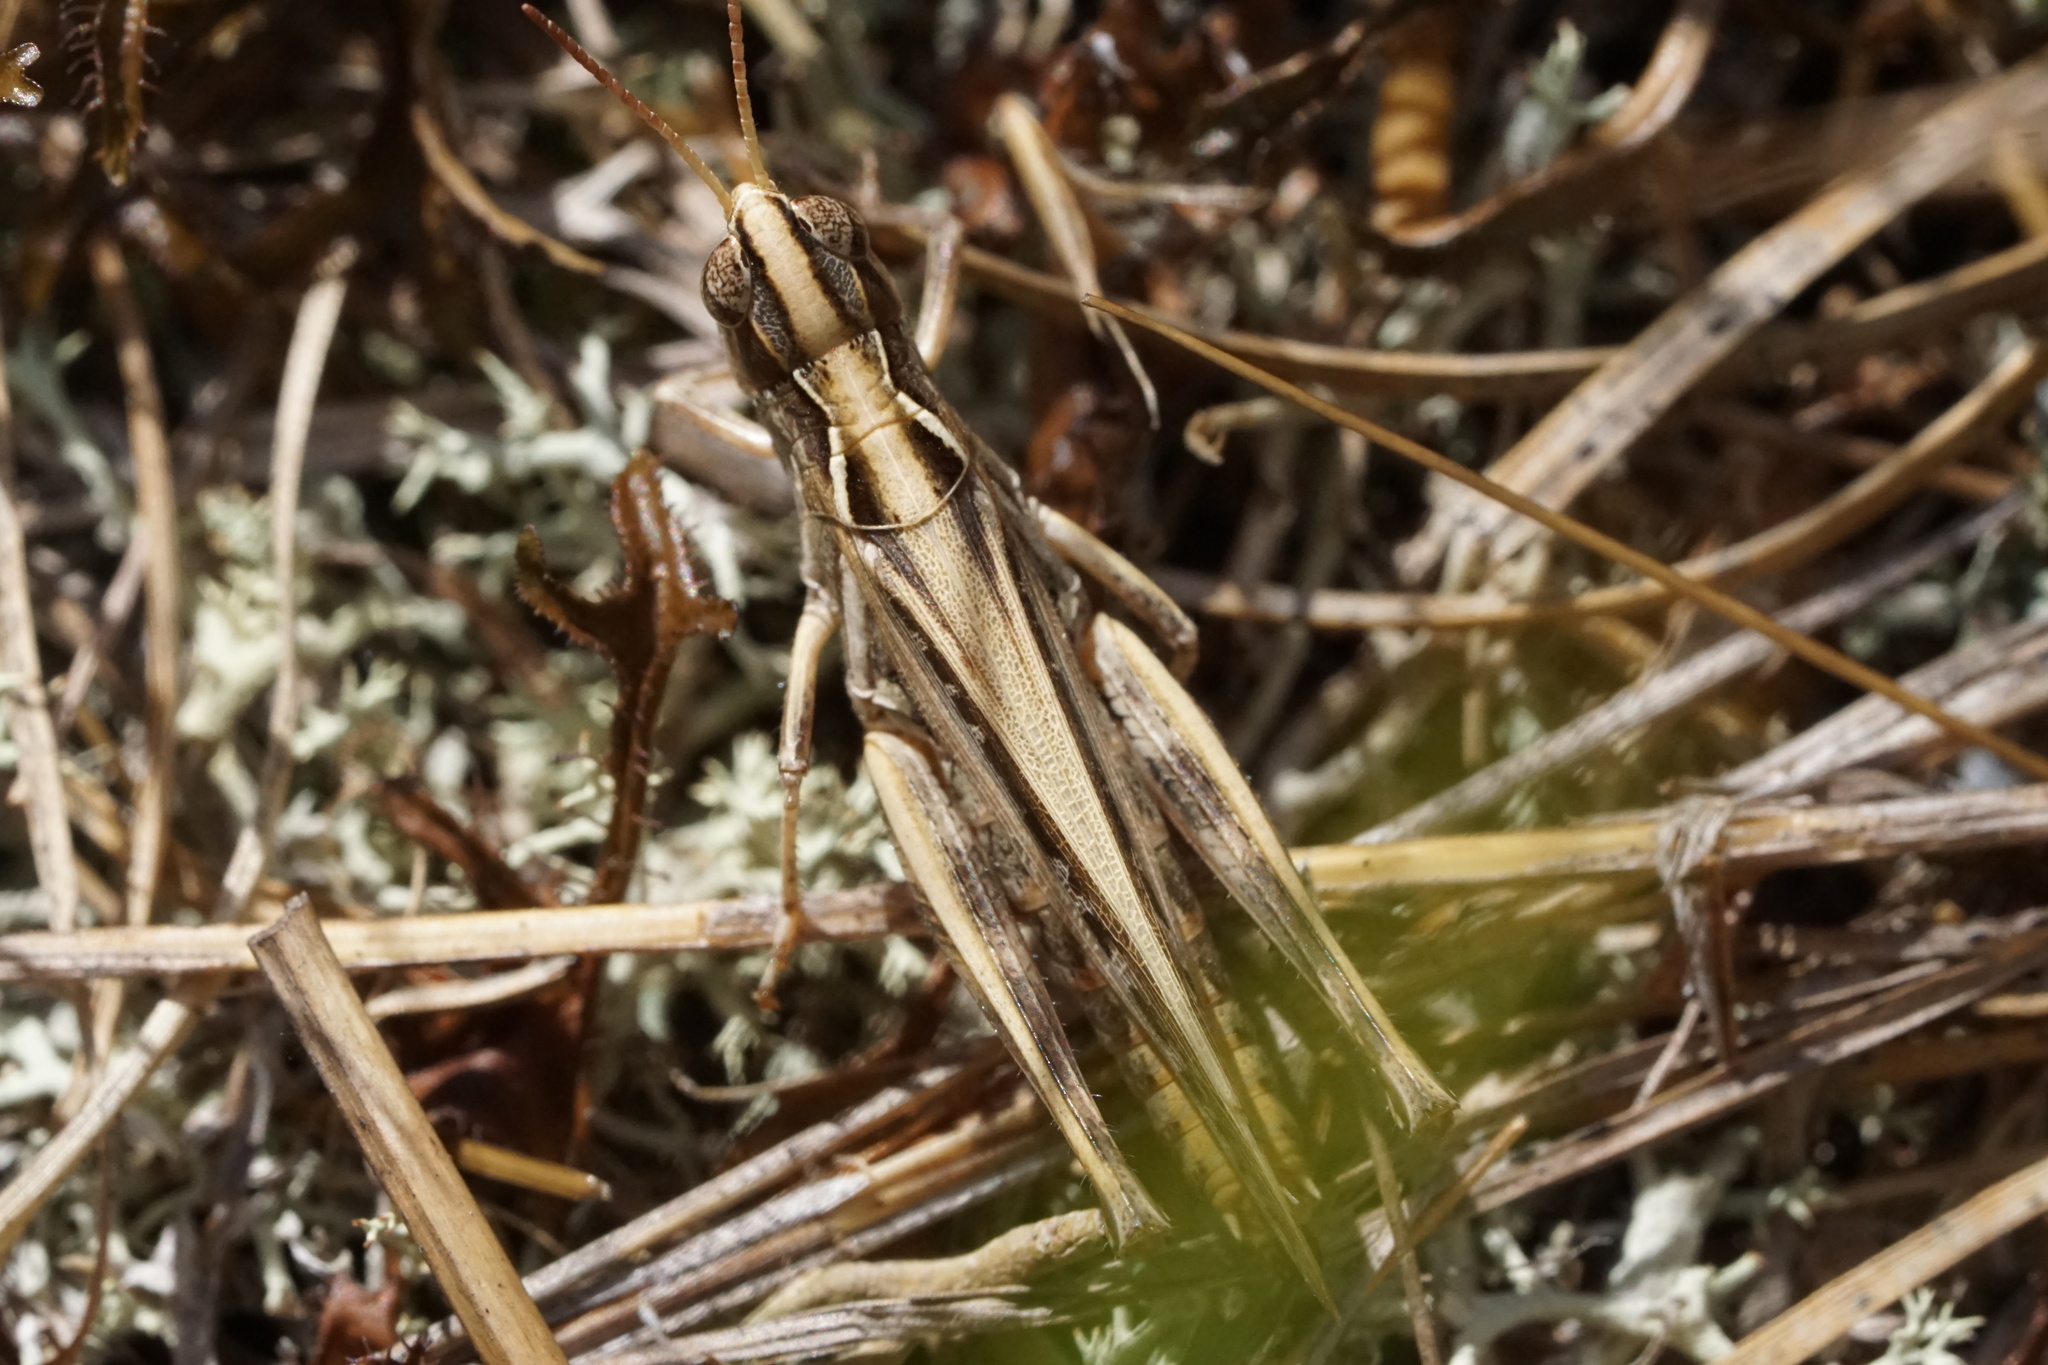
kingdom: Animalia
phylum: Arthropoda
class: Insecta
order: Orthoptera
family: Acrididae
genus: Orphulella
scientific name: Orphulella pelidna
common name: Spotted-wing grasshopper
